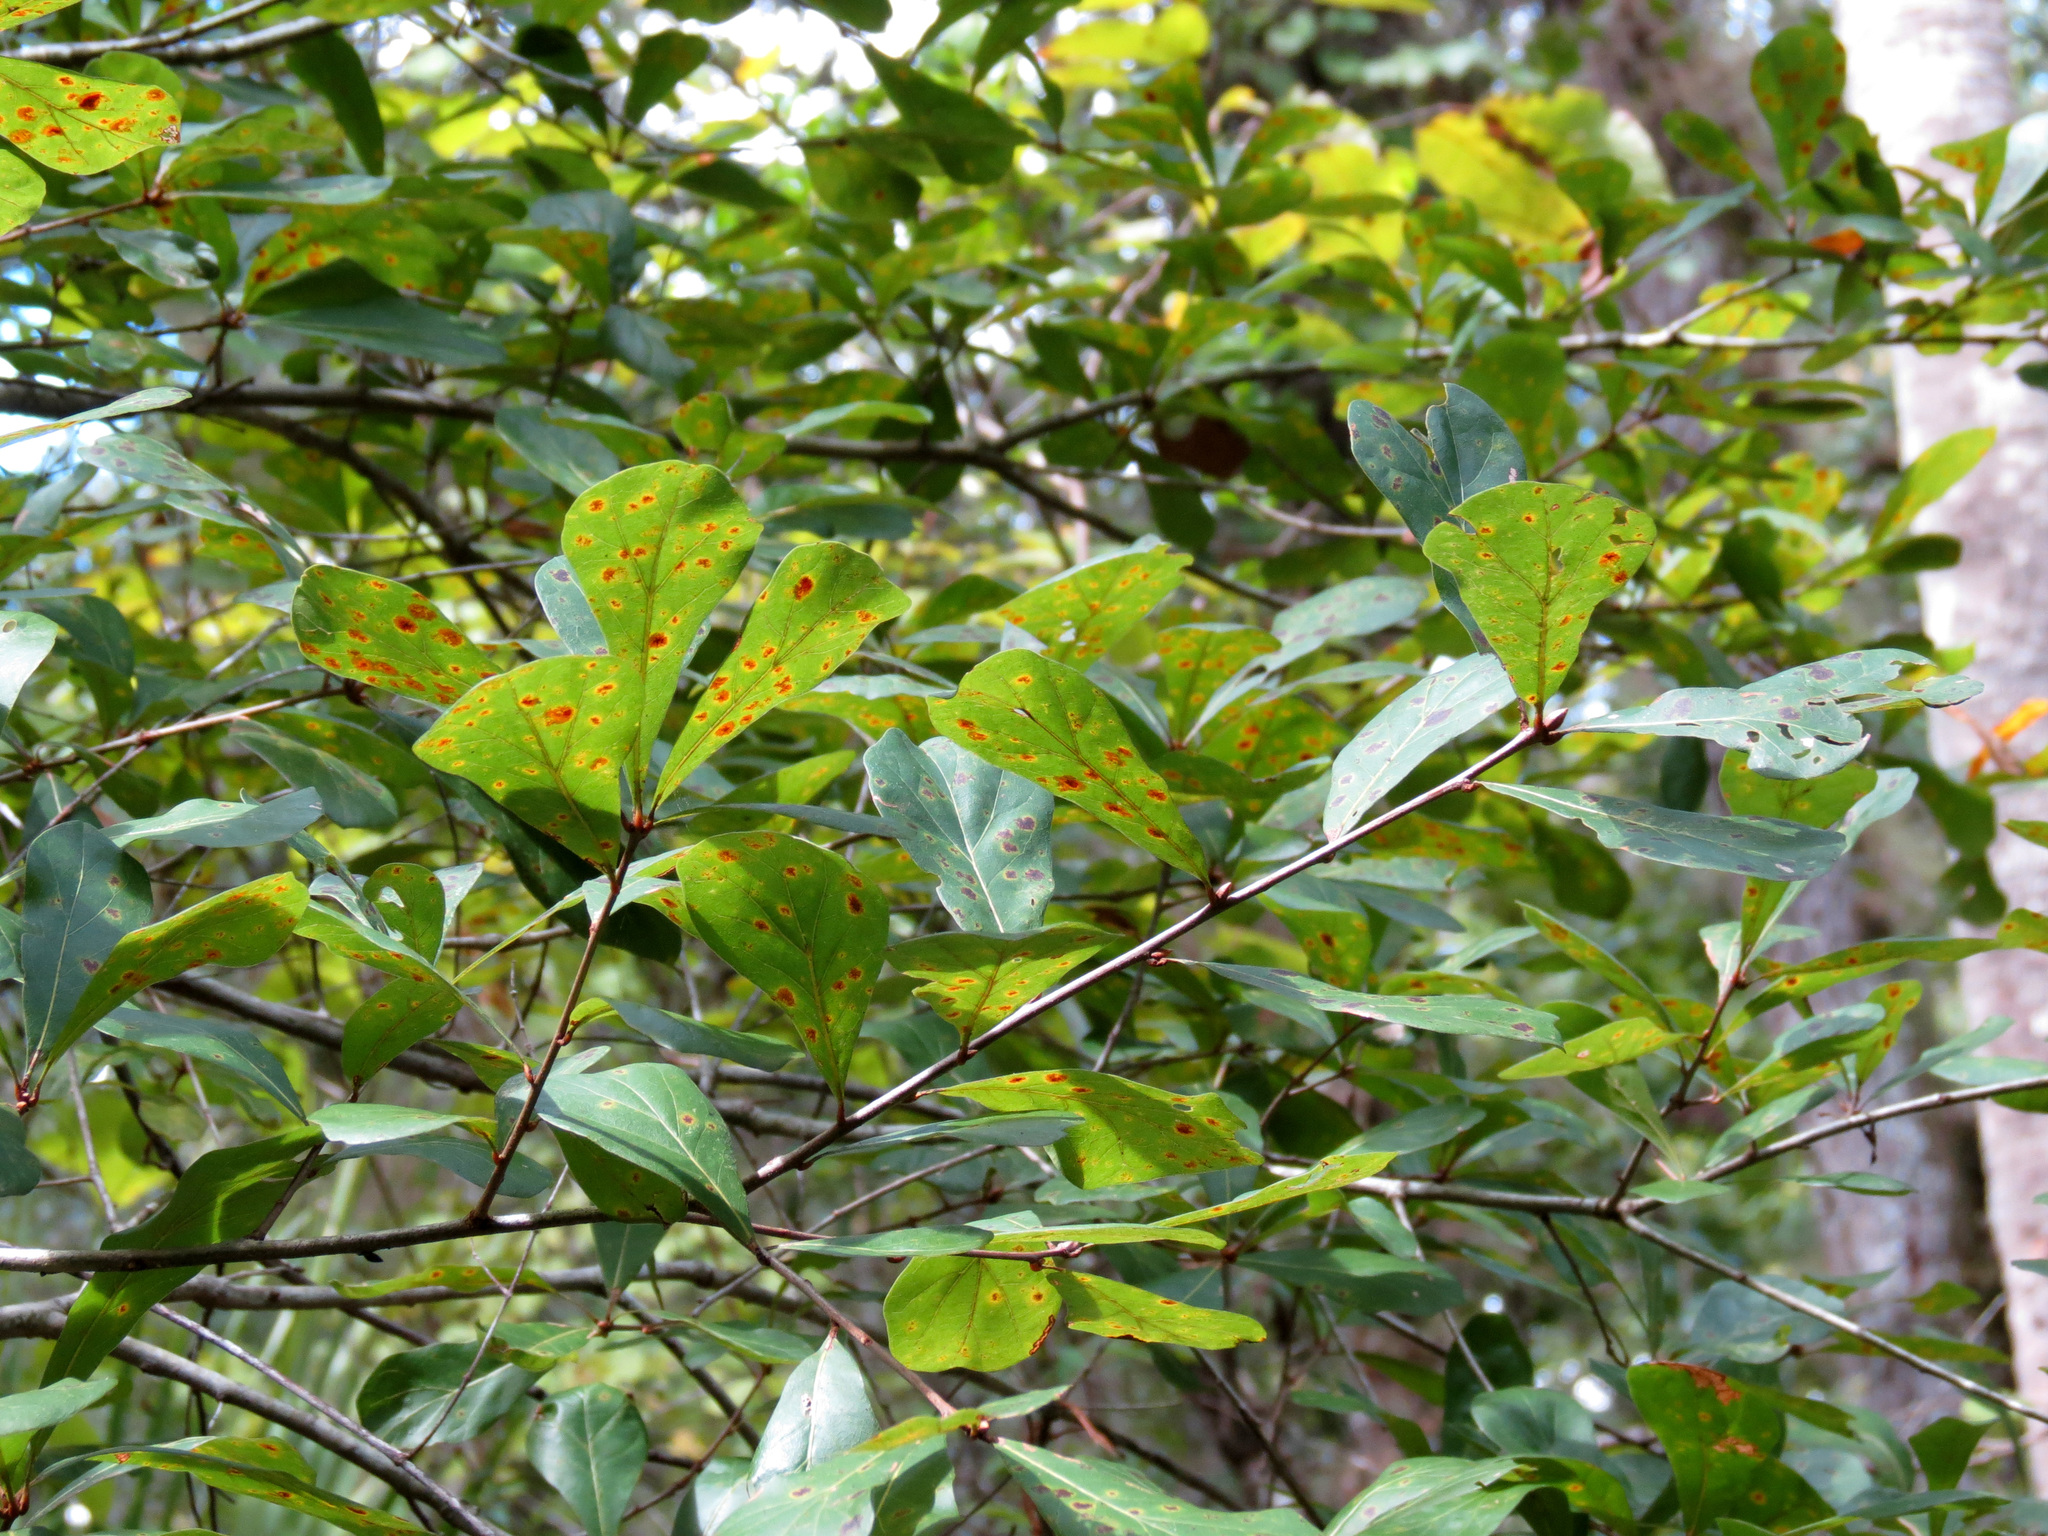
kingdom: Plantae
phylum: Tracheophyta
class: Magnoliopsida
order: Fagales
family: Fagaceae
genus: Quercus
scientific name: Quercus nigra
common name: Water oak
